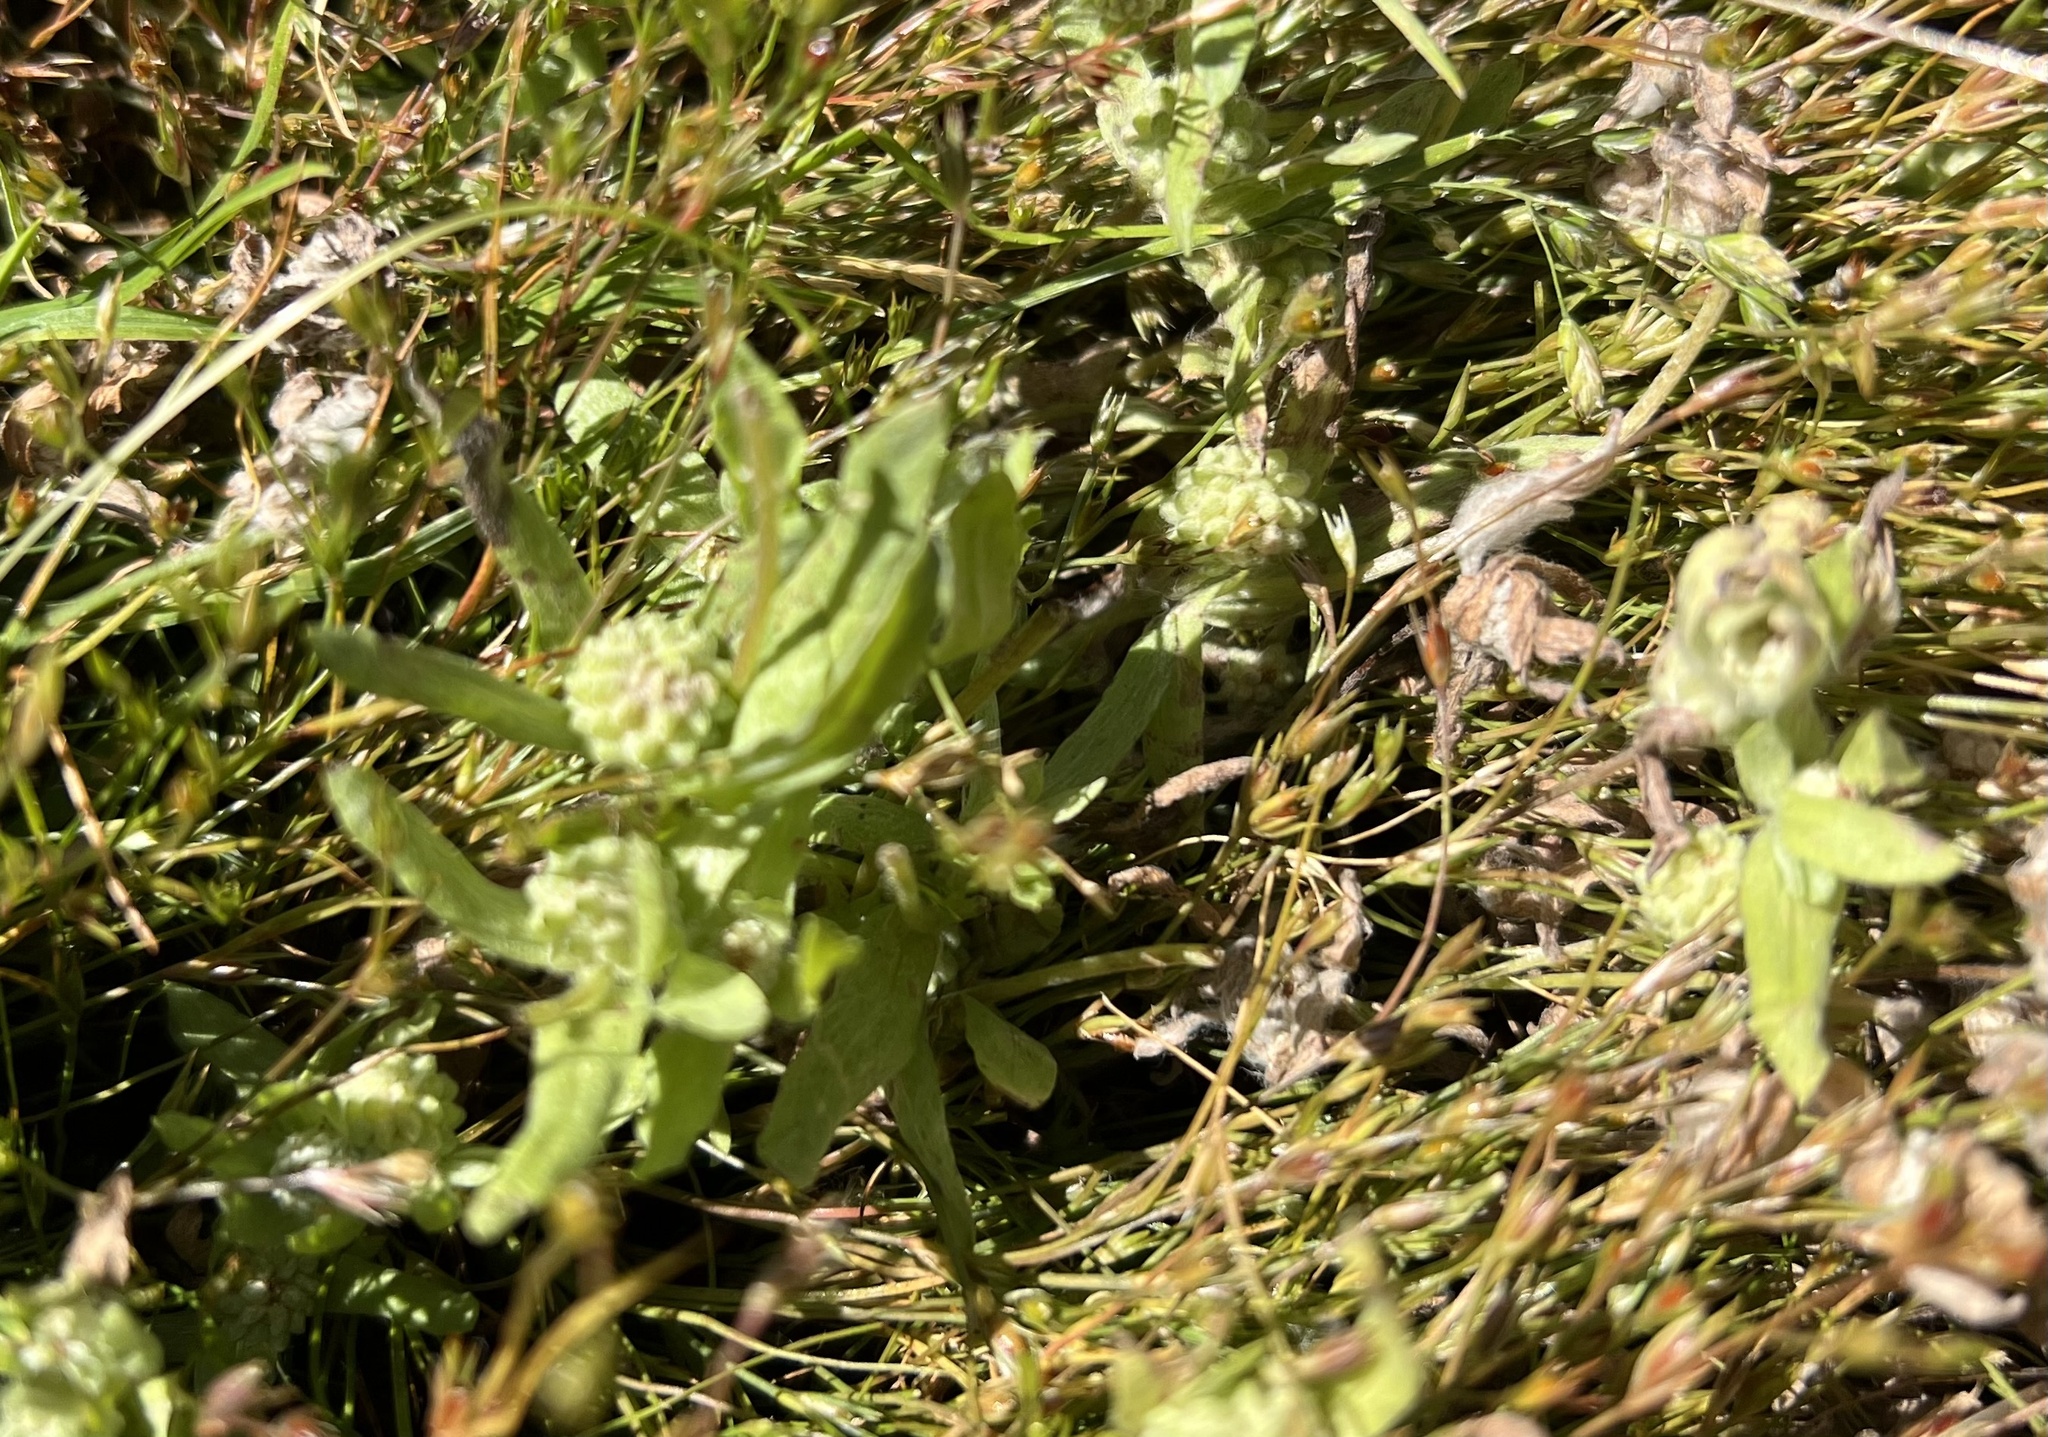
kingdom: Plantae
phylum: Tracheophyta
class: Magnoliopsida
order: Asterales
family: Asteraceae
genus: Psilocarphus
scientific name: Psilocarphus elatior
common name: Meadow woollyheads
